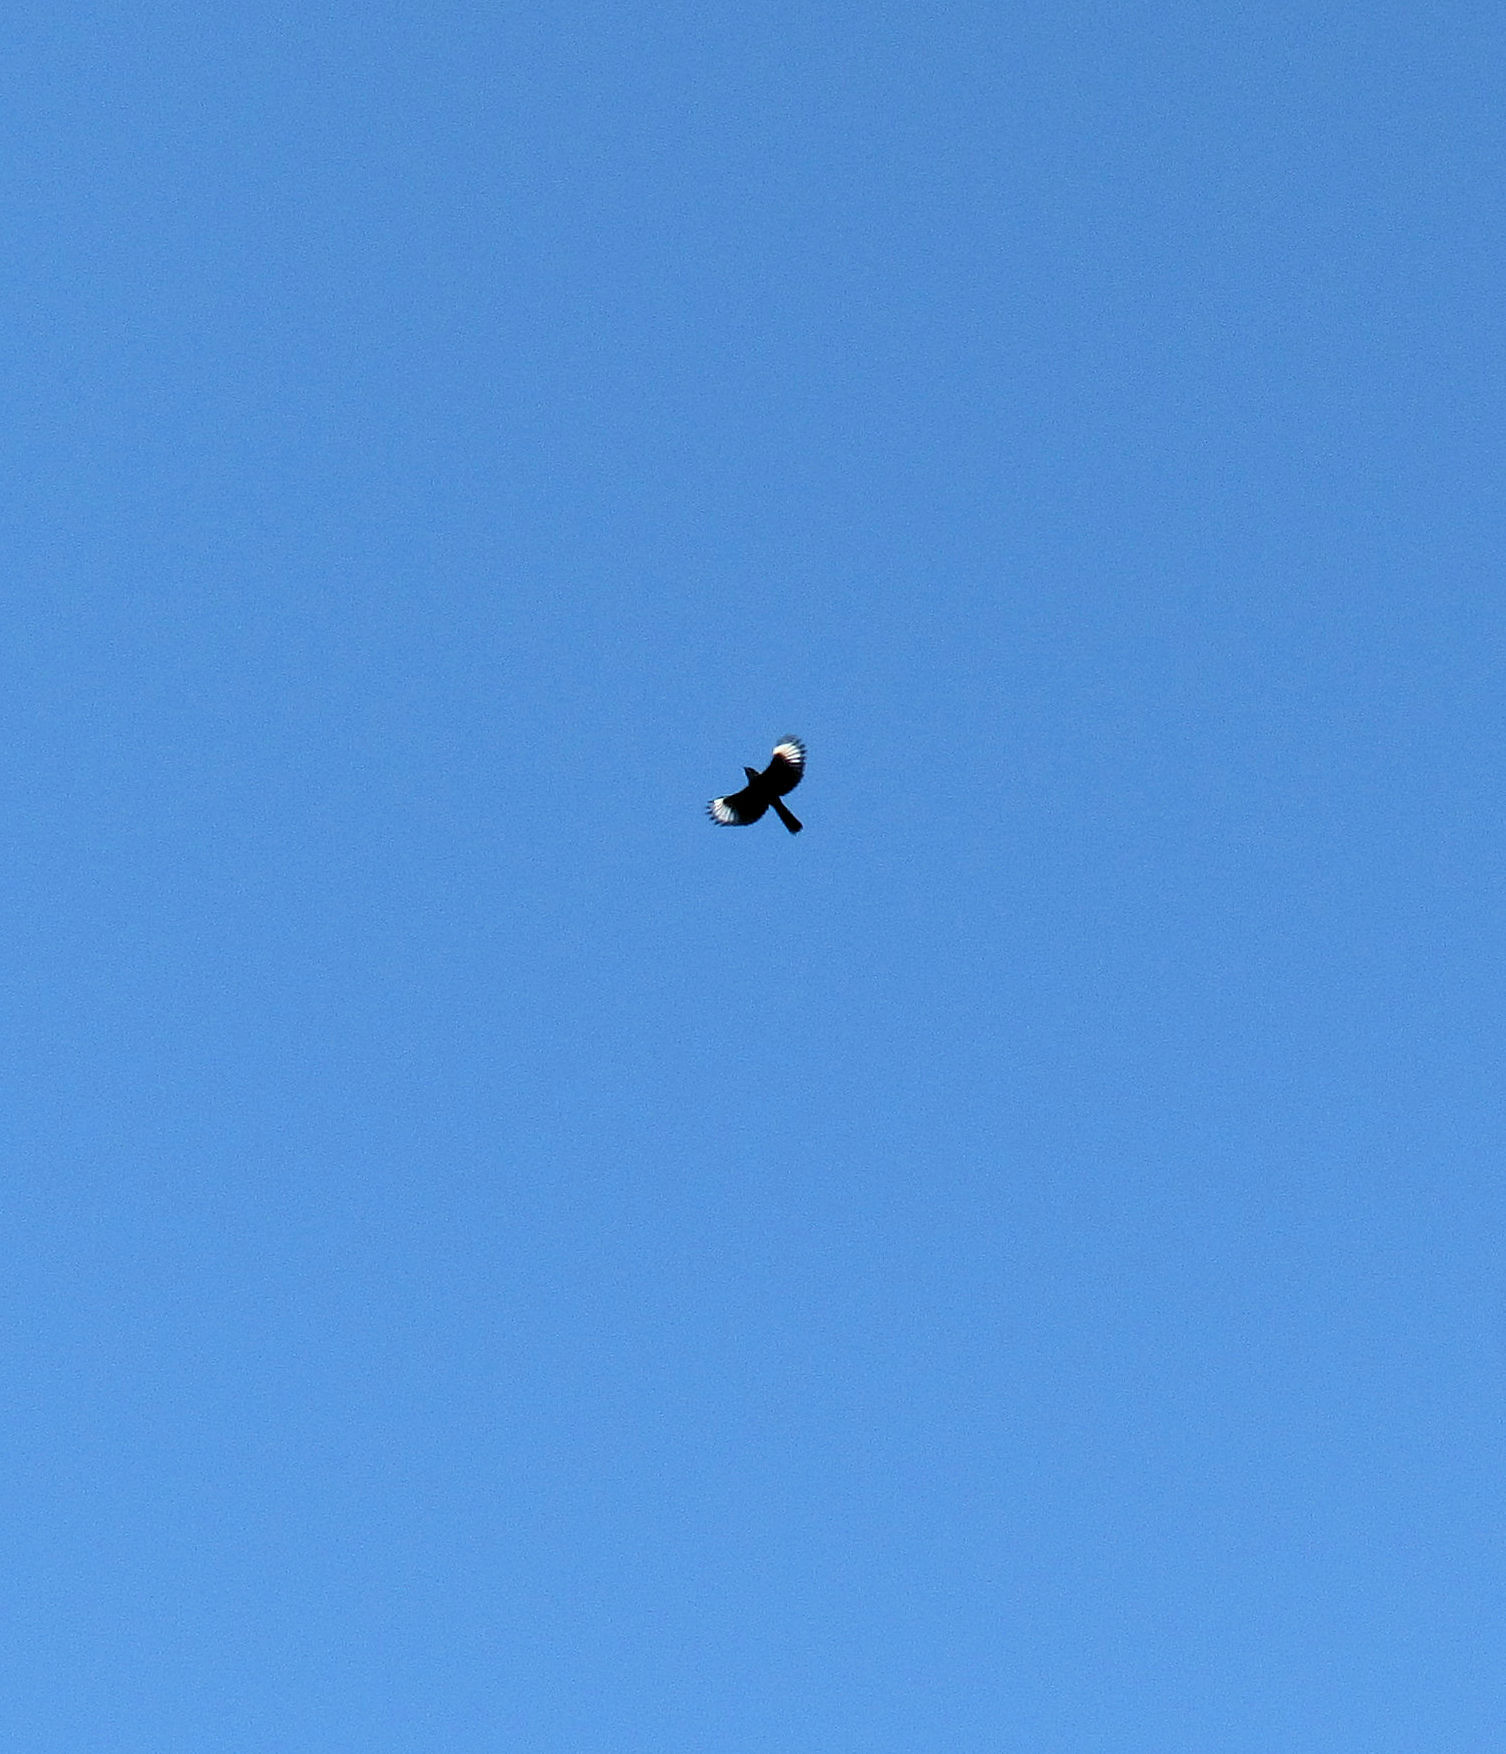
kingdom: Animalia
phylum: Chordata
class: Aves
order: Passeriformes
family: Ptilogonatidae
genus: Phainopepla
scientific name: Phainopepla nitens
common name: Phainopepla
